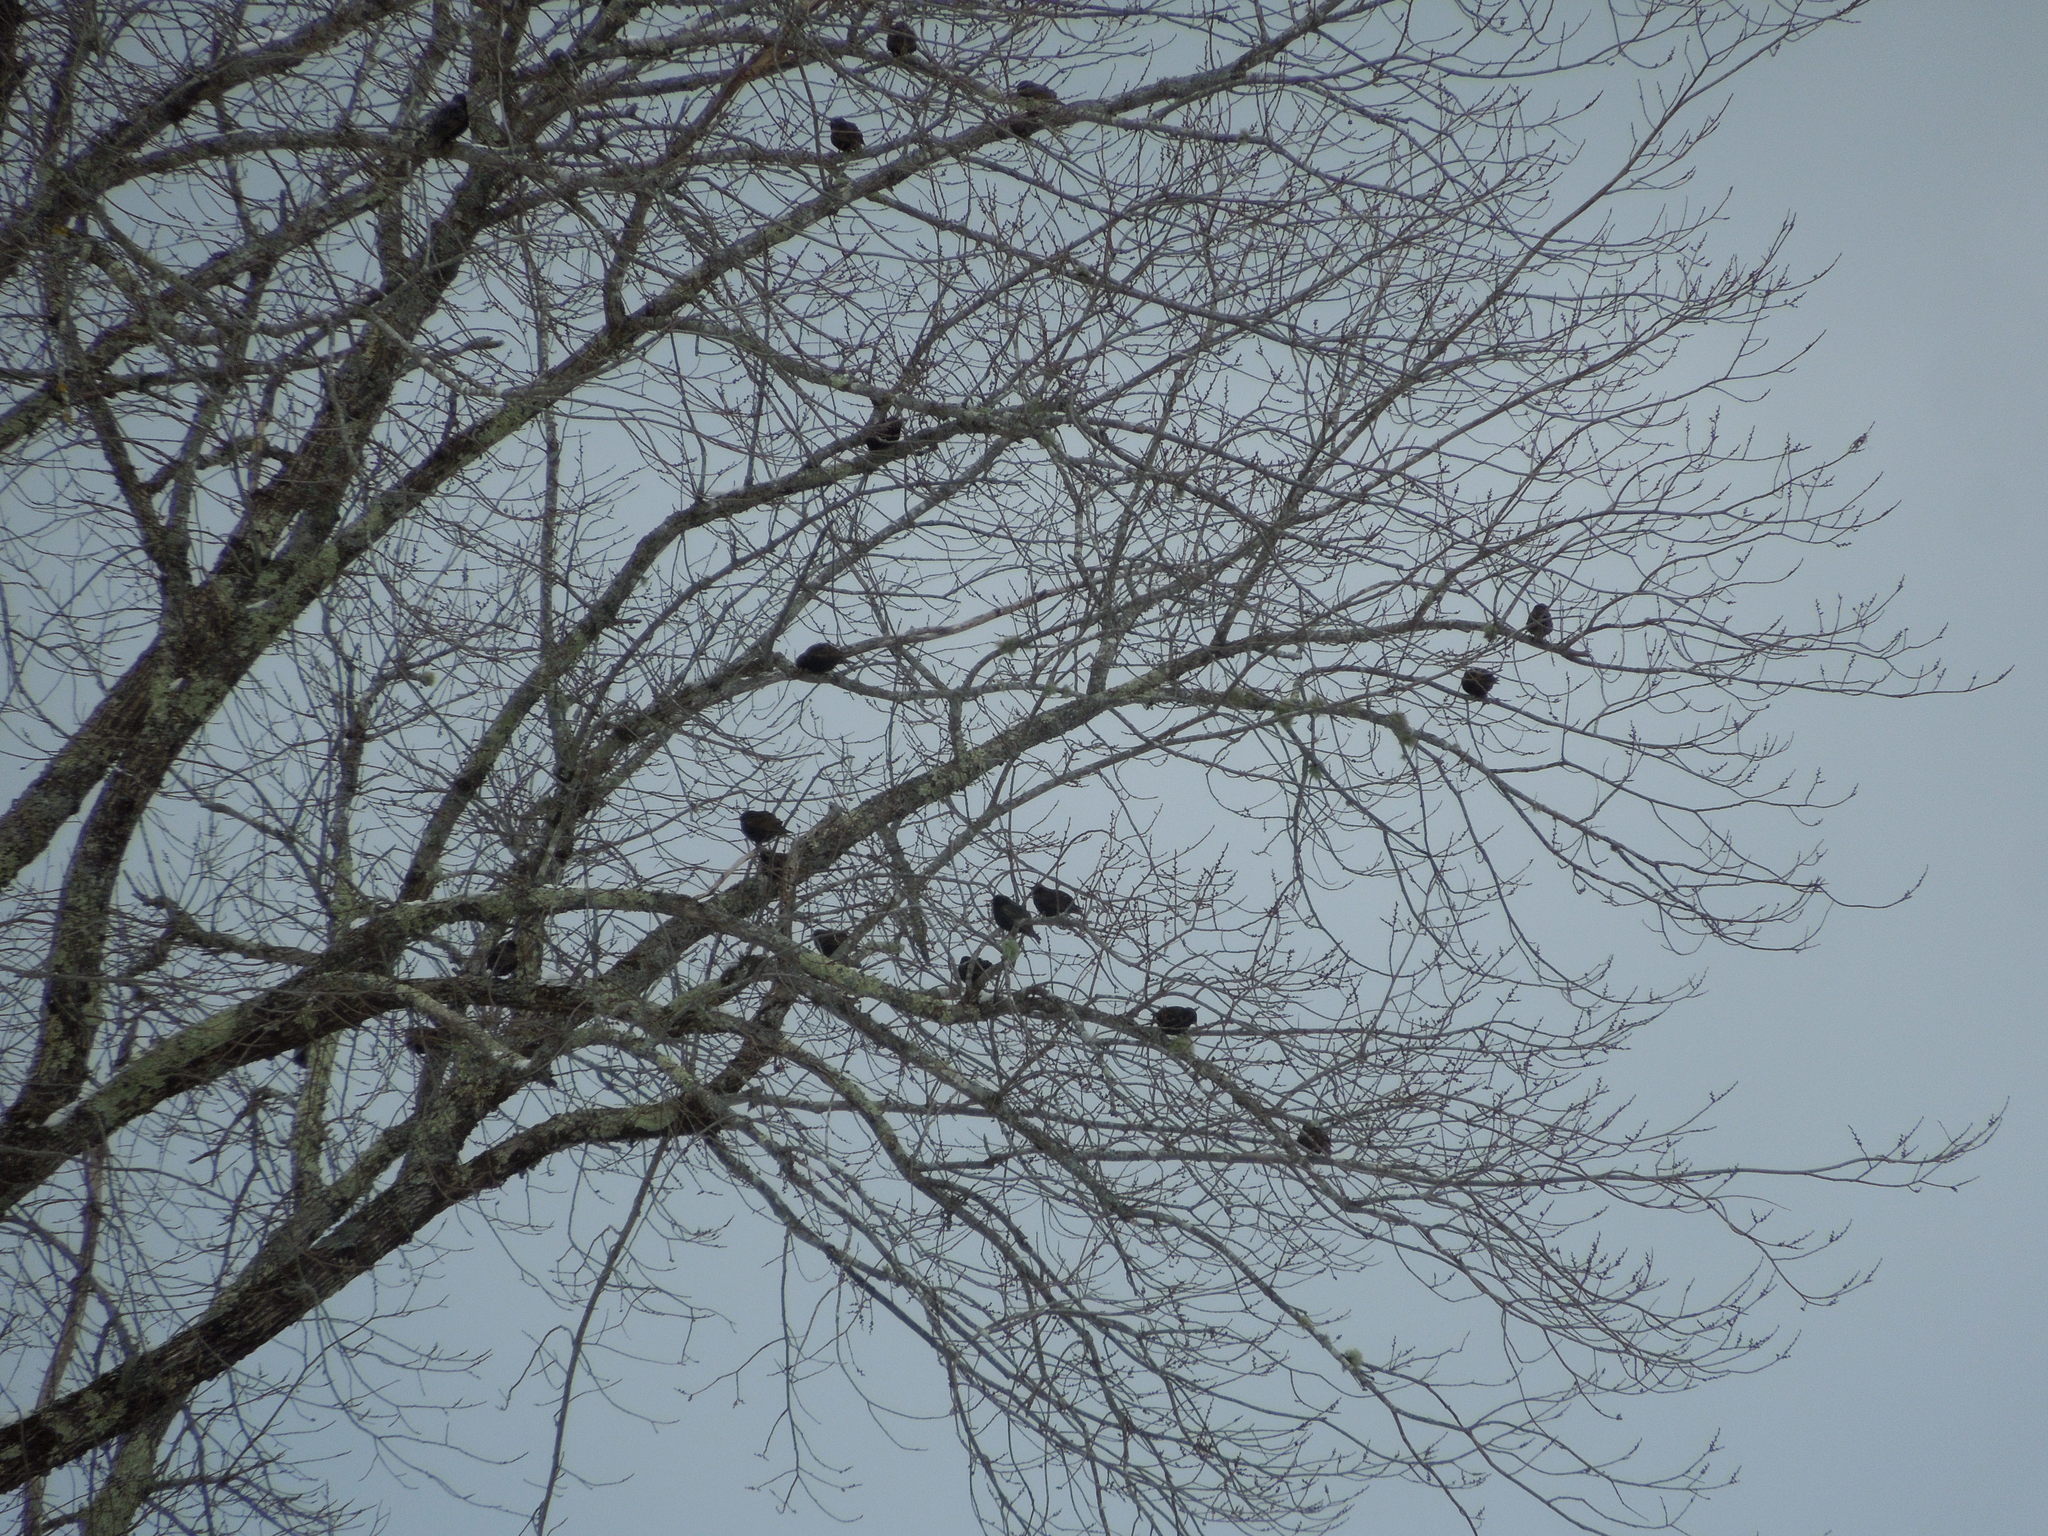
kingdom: Animalia
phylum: Chordata
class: Aves
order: Passeriformes
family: Sturnidae
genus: Sturnus
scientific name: Sturnus vulgaris
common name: Common starling
